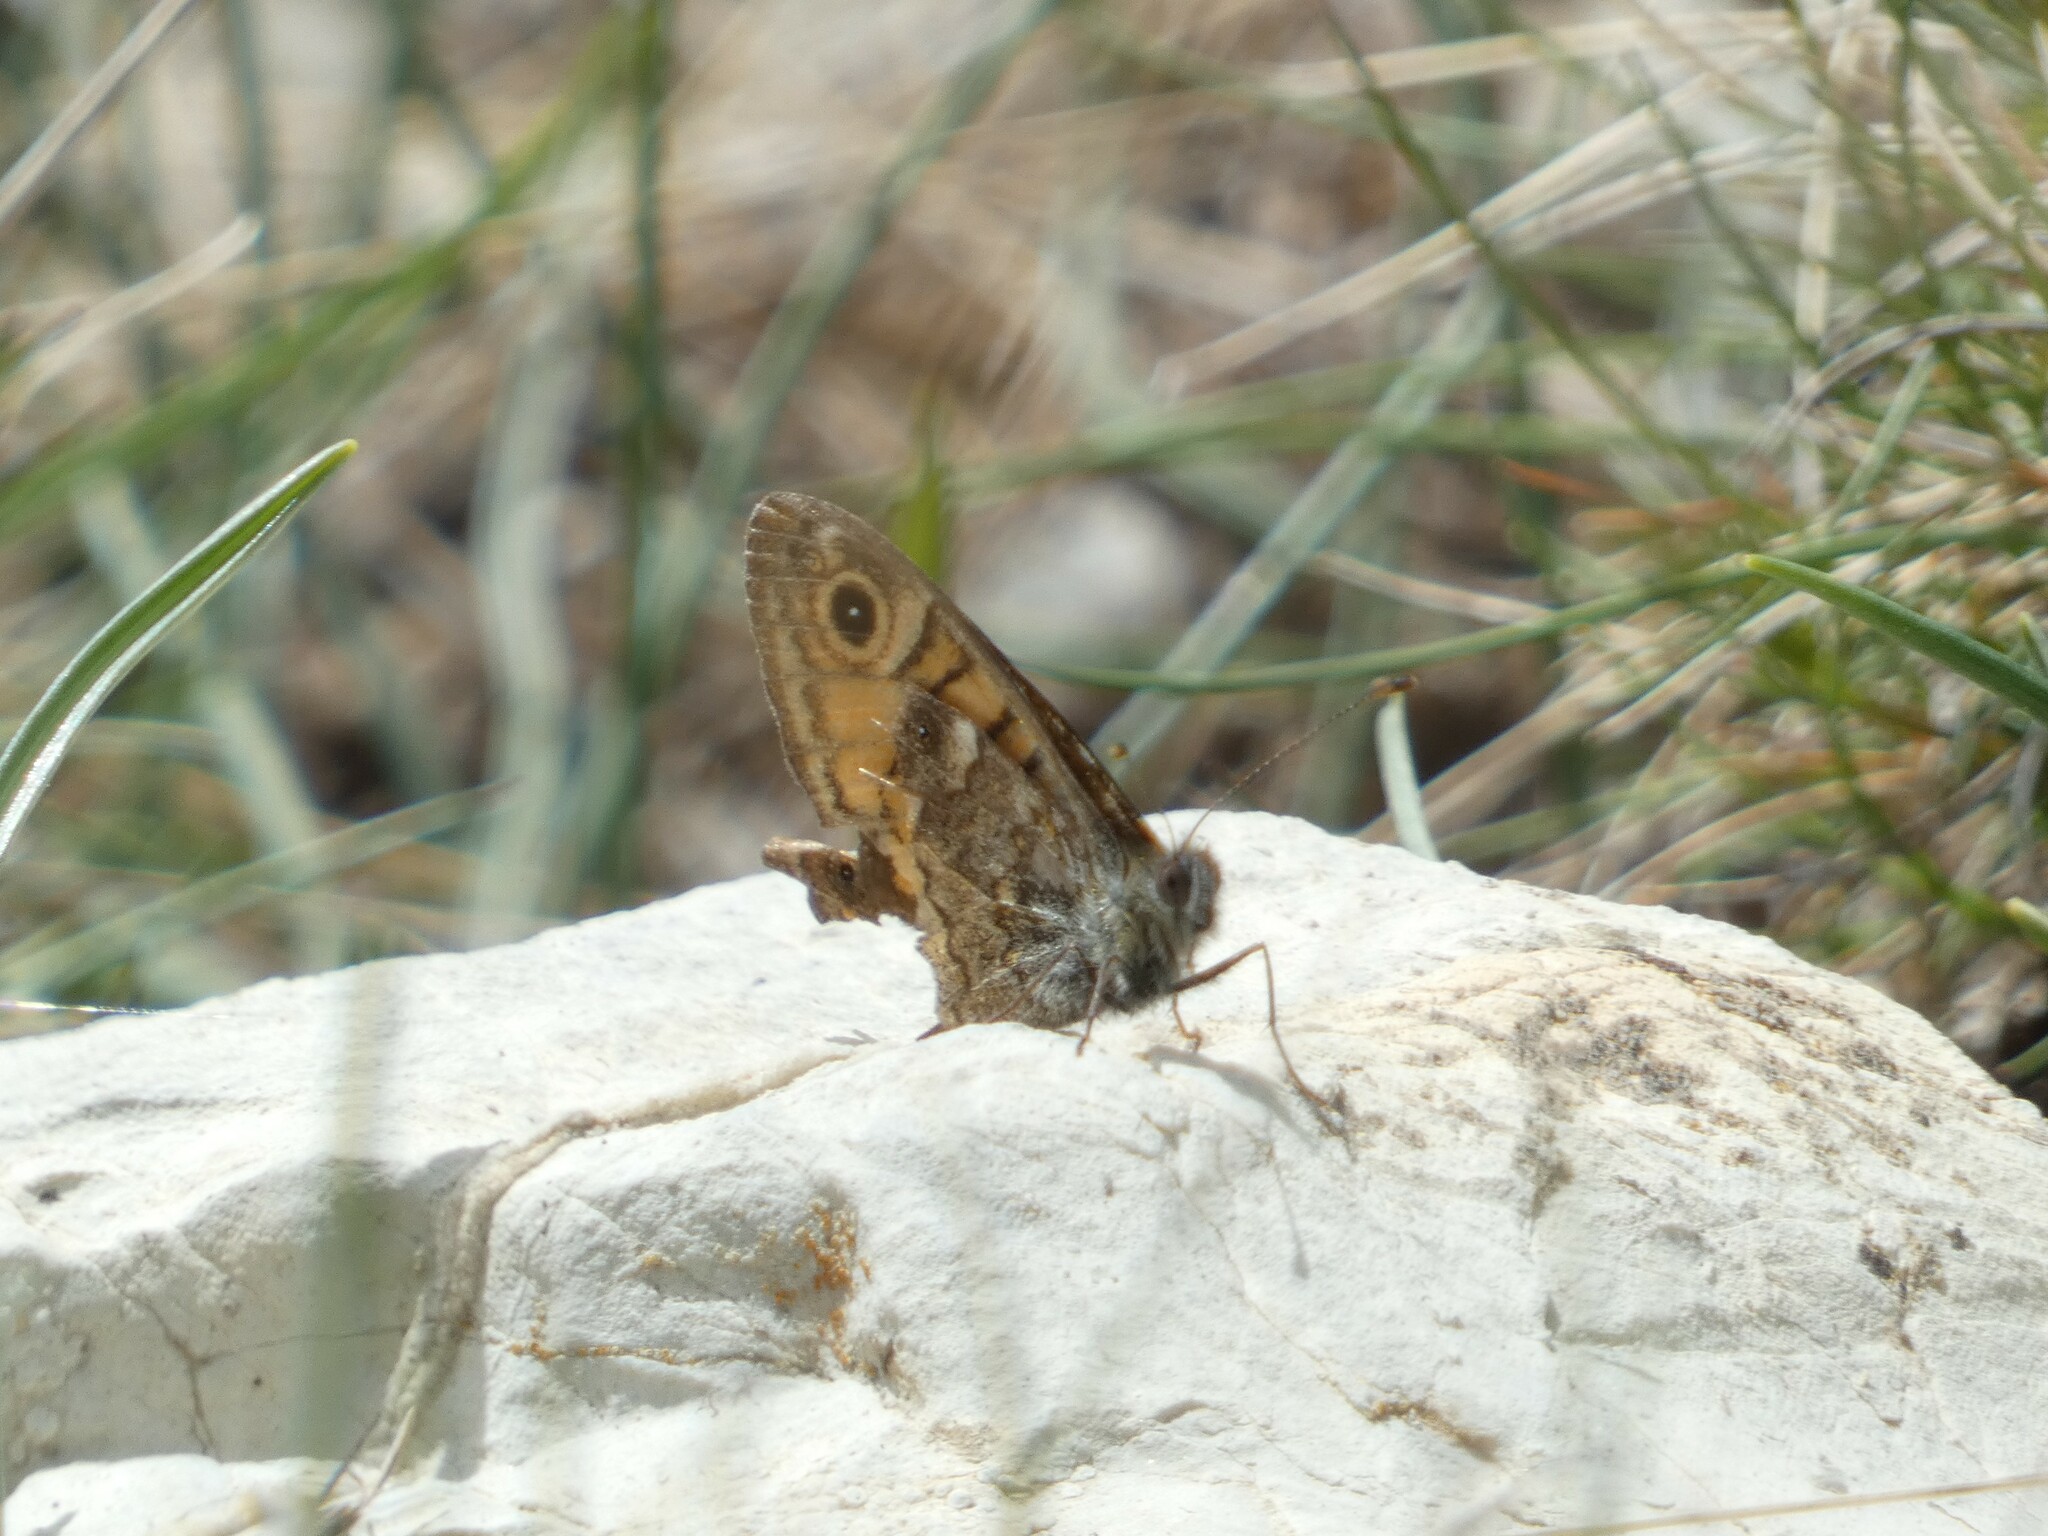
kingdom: Animalia
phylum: Arthropoda
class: Insecta
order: Lepidoptera
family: Nymphalidae
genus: Pararge
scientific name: Pararge Lasiommata megera
